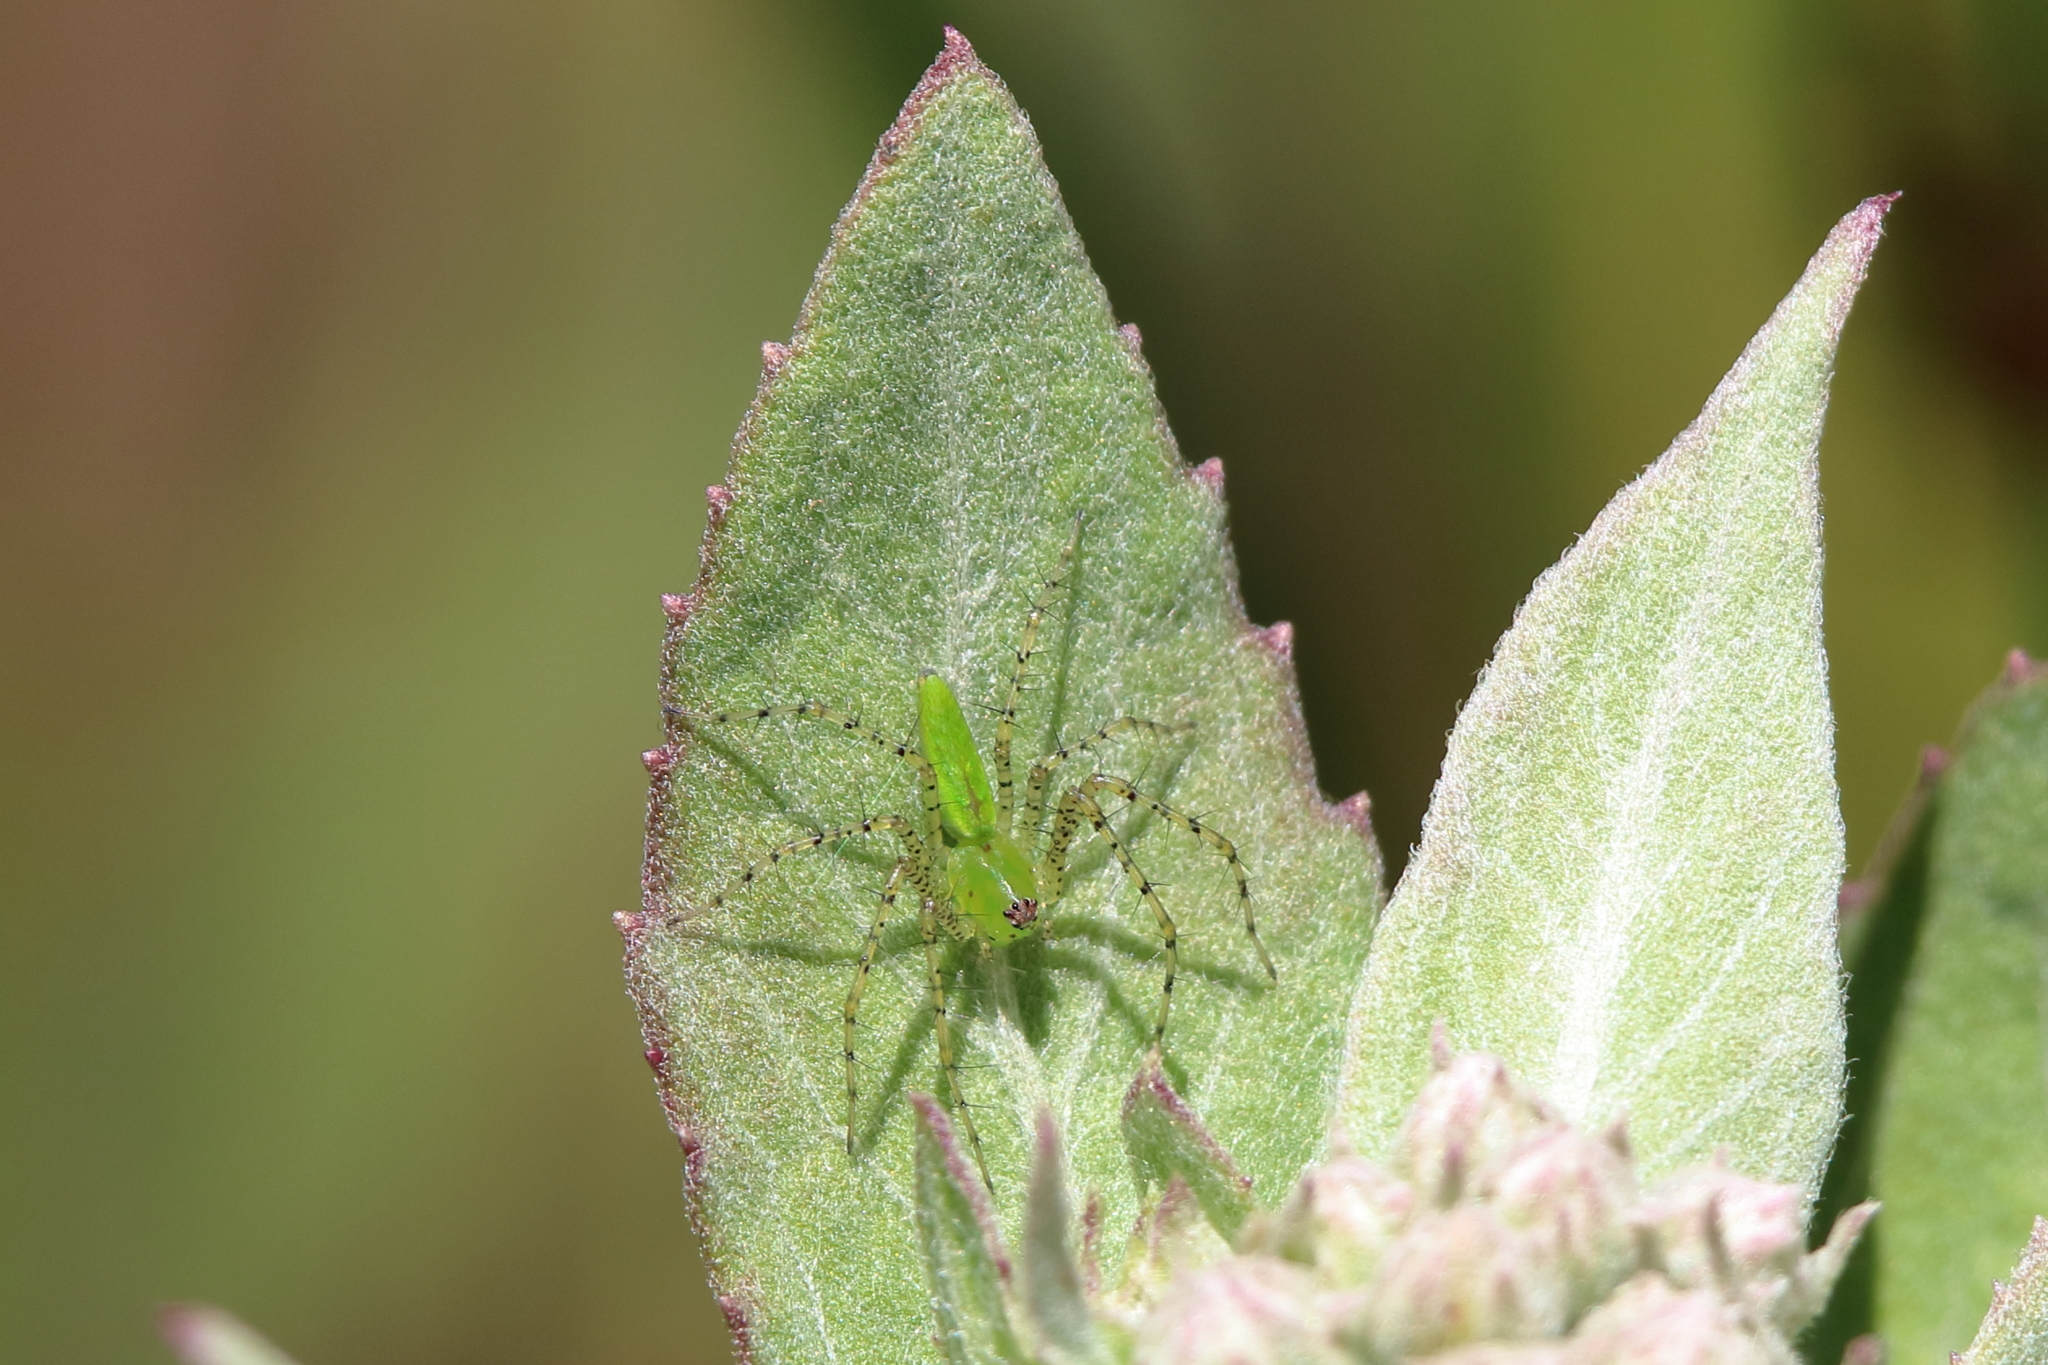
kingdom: Animalia
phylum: Arthropoda
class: Arachnida
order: Araneae
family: Oxyopidae
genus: Peucetia
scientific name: Peucetia viridans
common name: Lynx spiders
